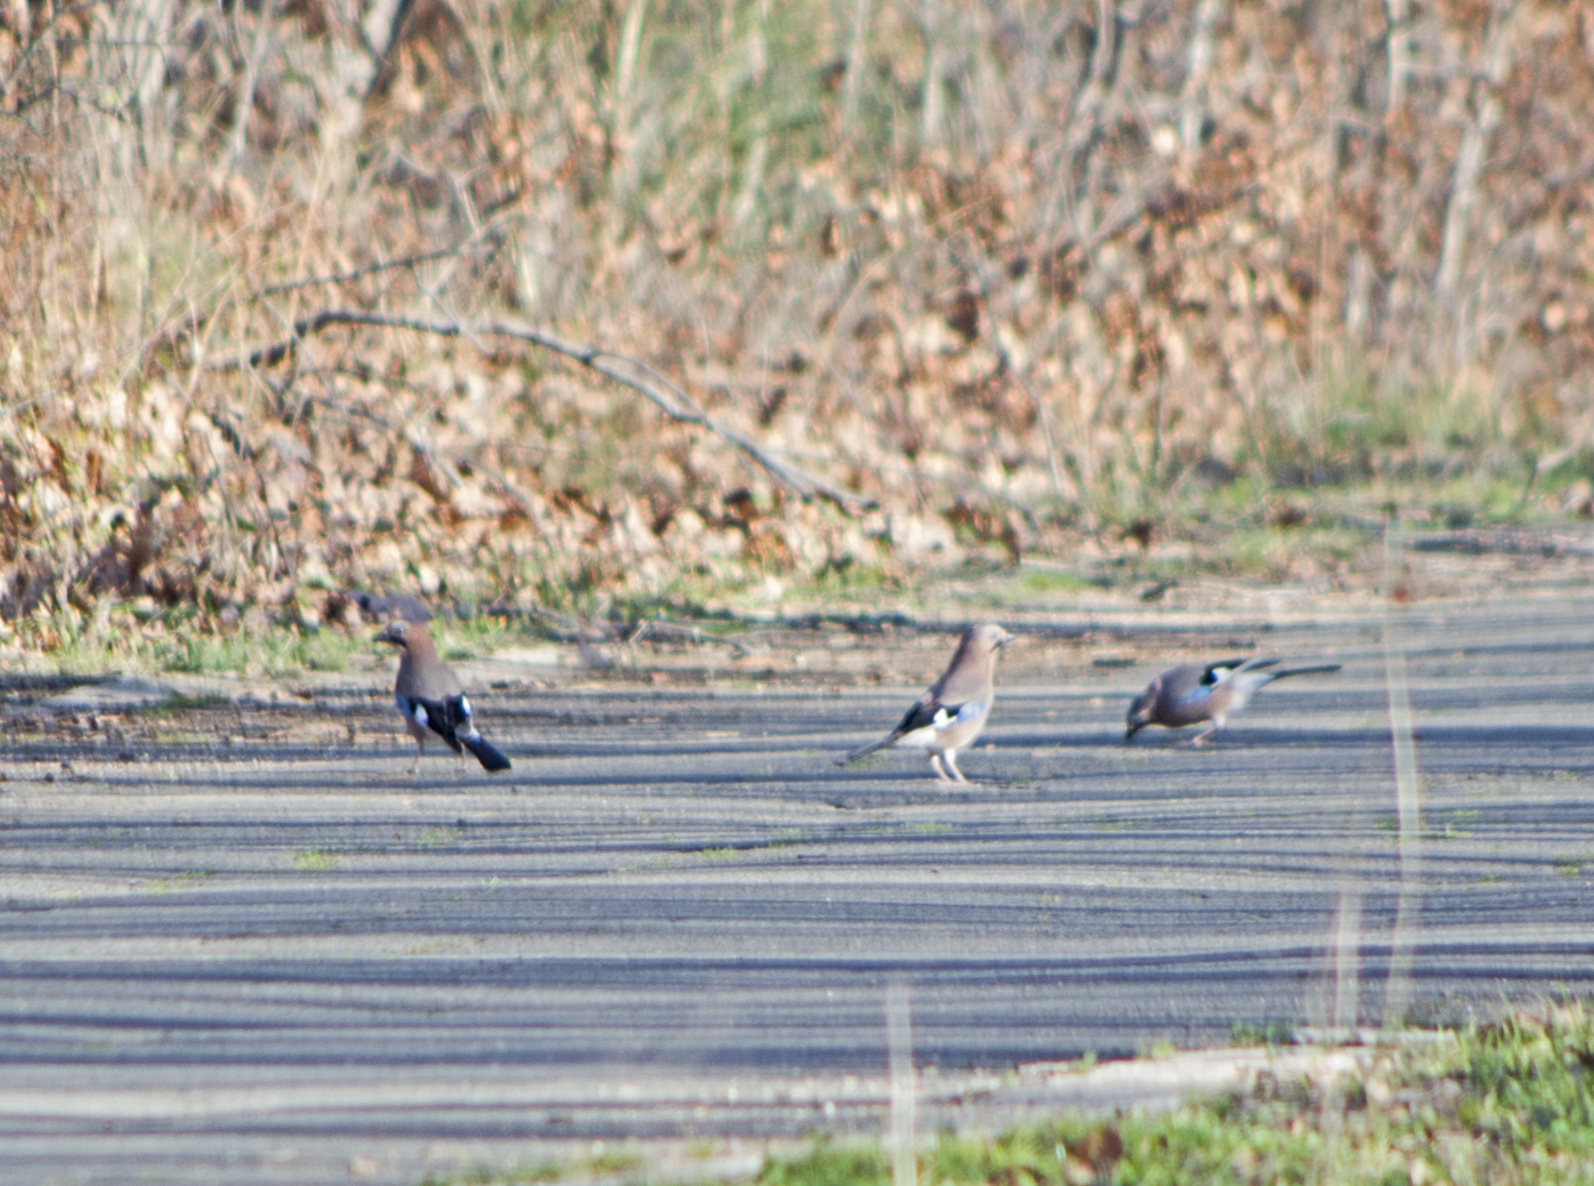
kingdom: Animalia
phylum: Chordata
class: Aves
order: Passeriformes
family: Corvidae
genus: Garrulus
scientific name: Garrulus glandarius
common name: Eurasian jay
